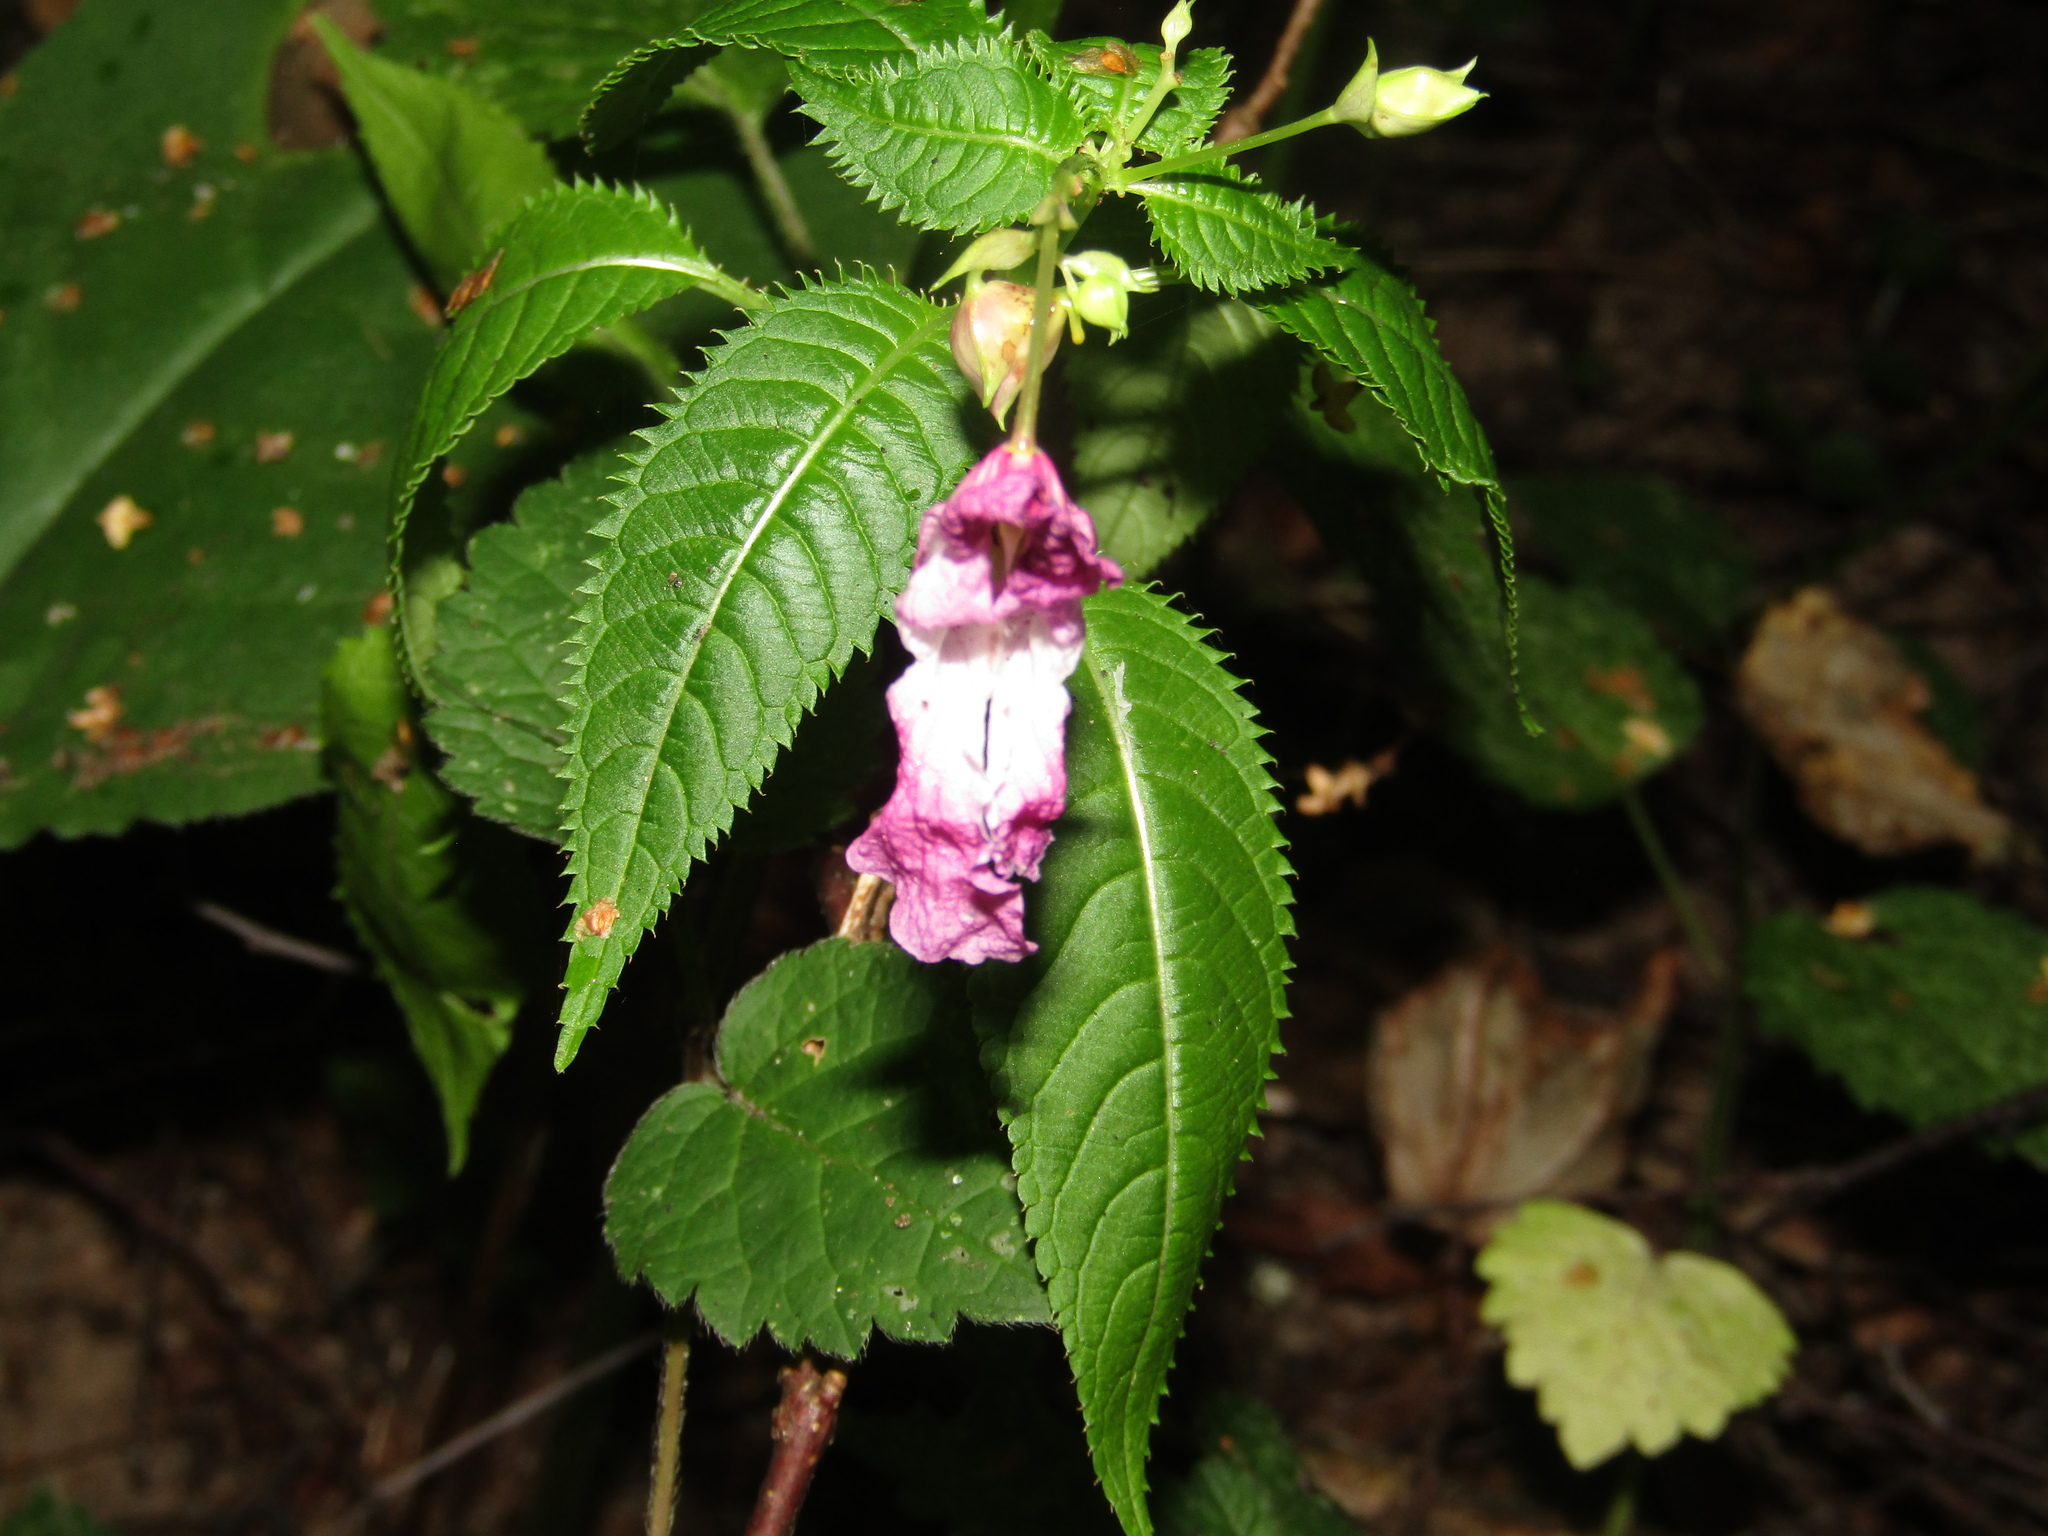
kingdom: Plantae
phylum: Tracheophyta
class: Magnoliopsida
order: Ericales
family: Balsaminaceae
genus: Impatiens
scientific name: Impatiens glandulifera
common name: Himalayan balsam
